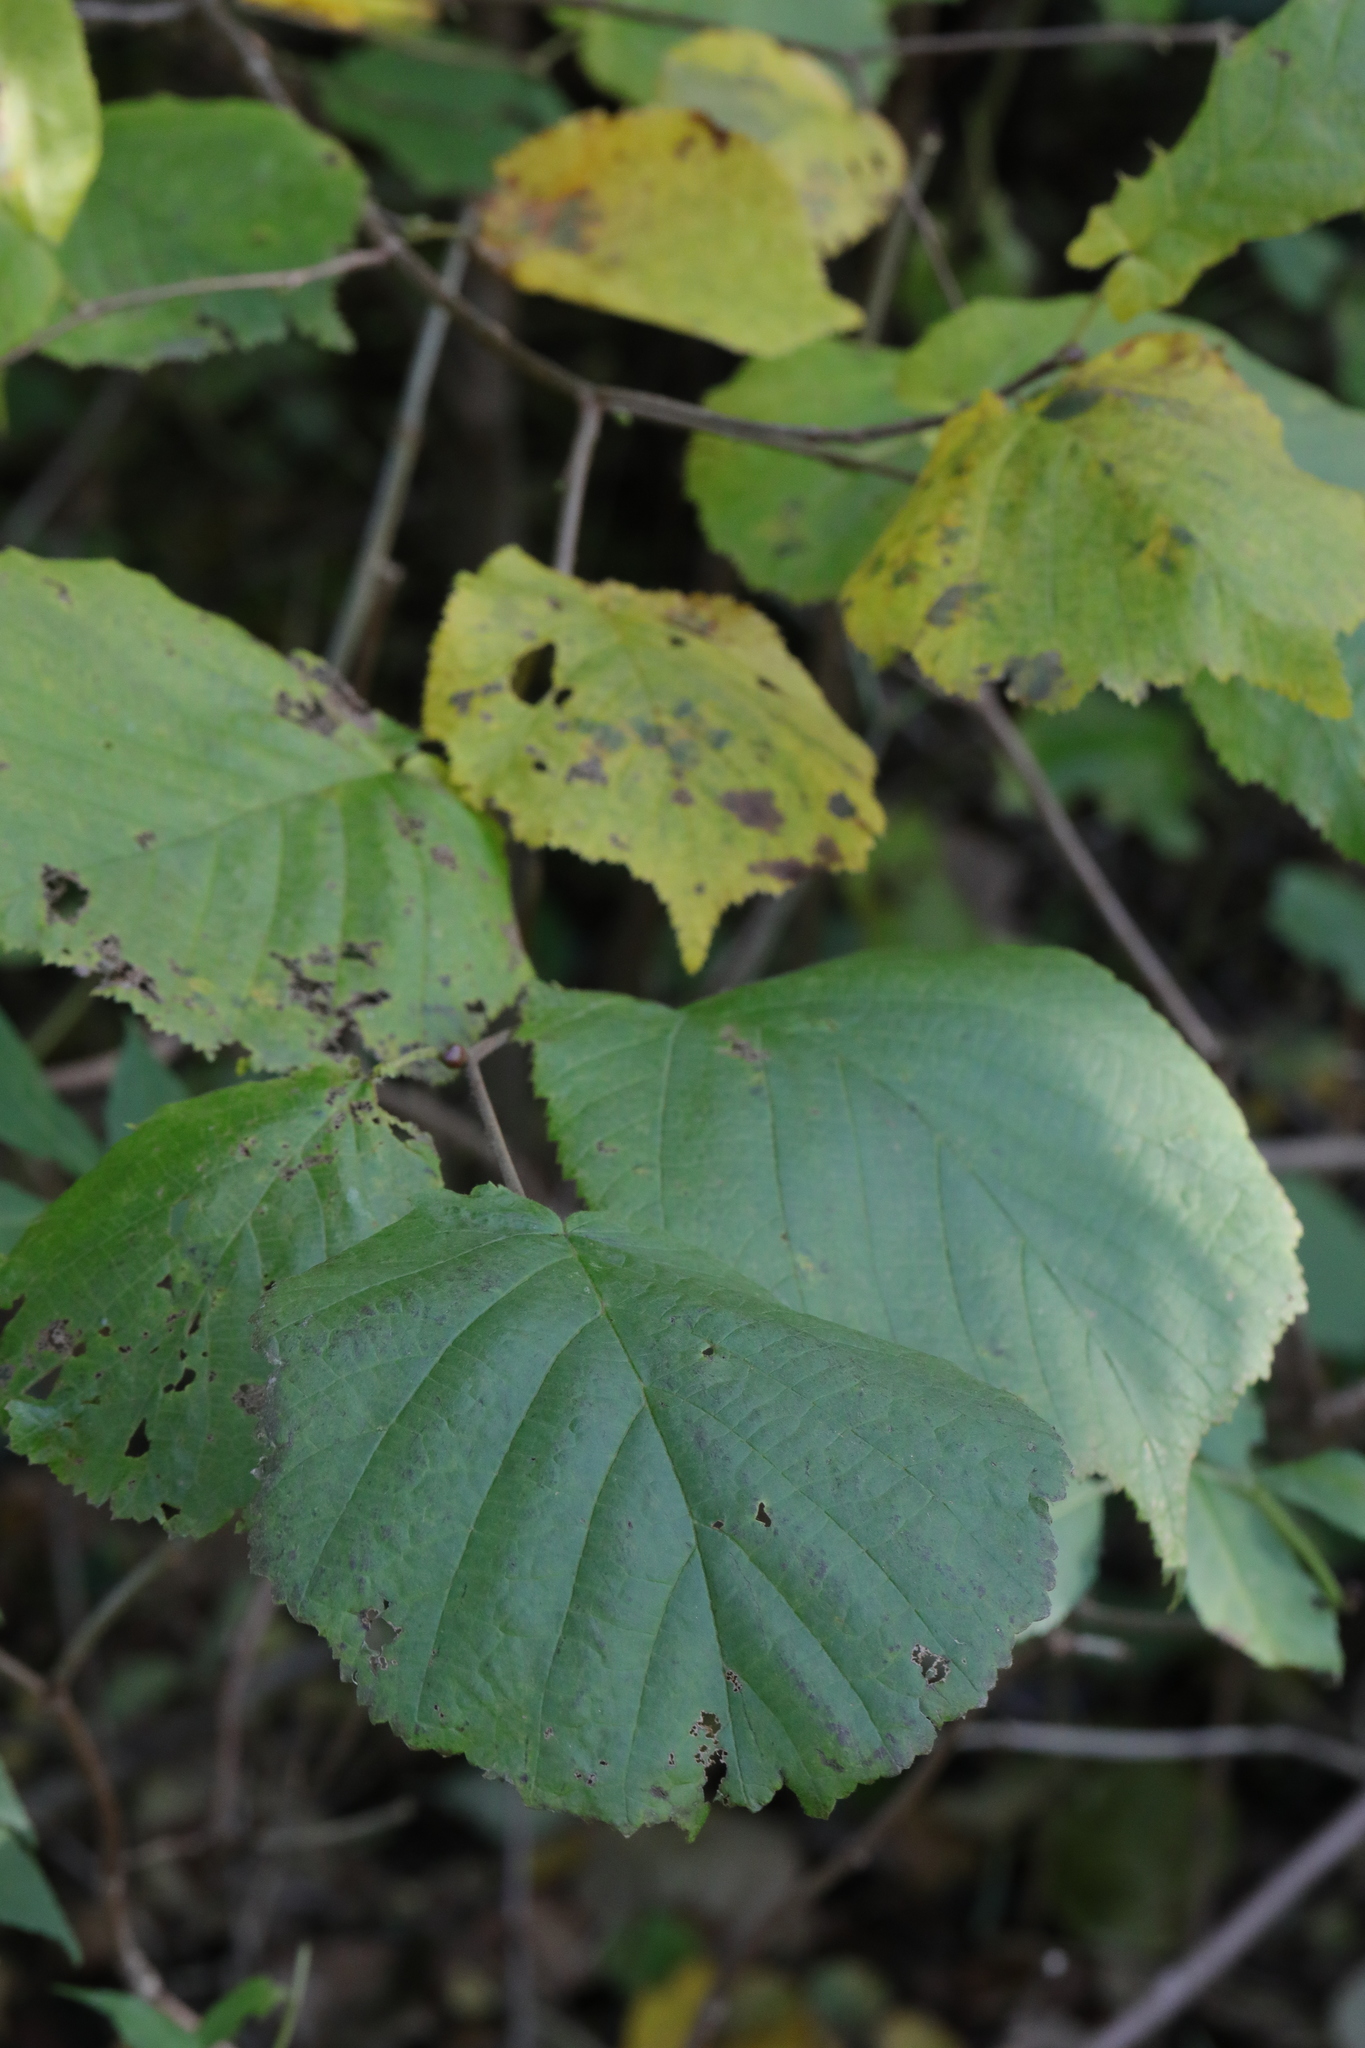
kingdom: Plantae
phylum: Tracheophyta
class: Magnoliopsida
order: Fagales
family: Betulaceae
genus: Corylus
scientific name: Corylus avellana
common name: European hazel
